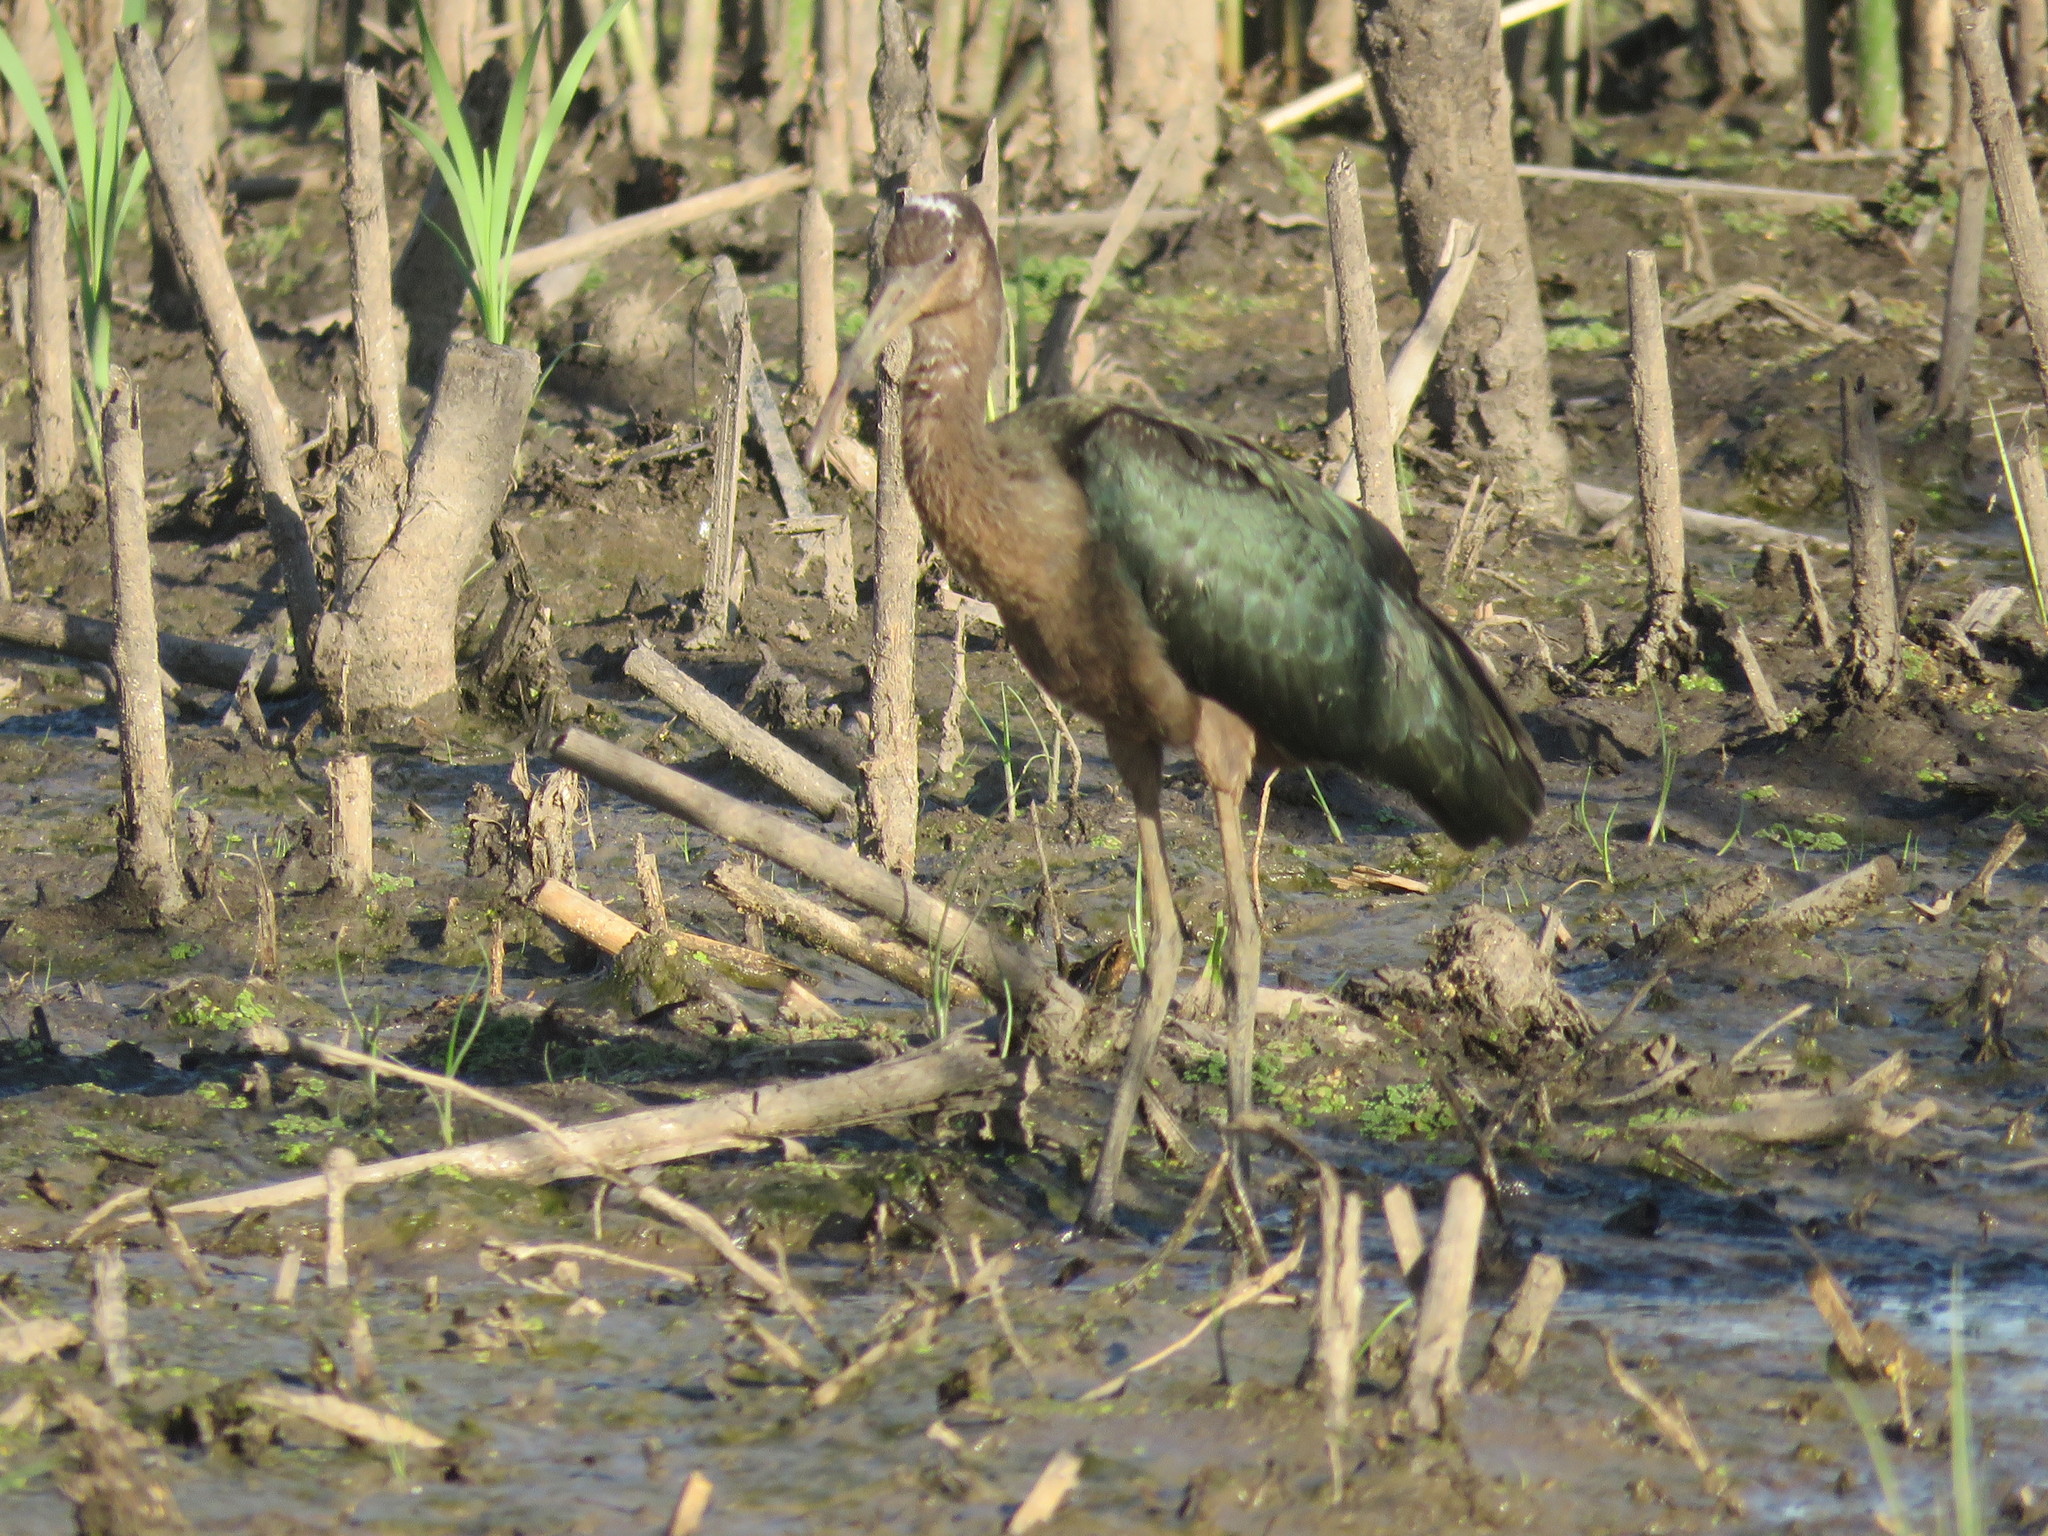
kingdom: Animalia
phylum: Chordata
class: Aves
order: Pelecaniformes
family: Threskiornithidae
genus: Plegadis
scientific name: Plegadis chihi
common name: White-faced ibis
